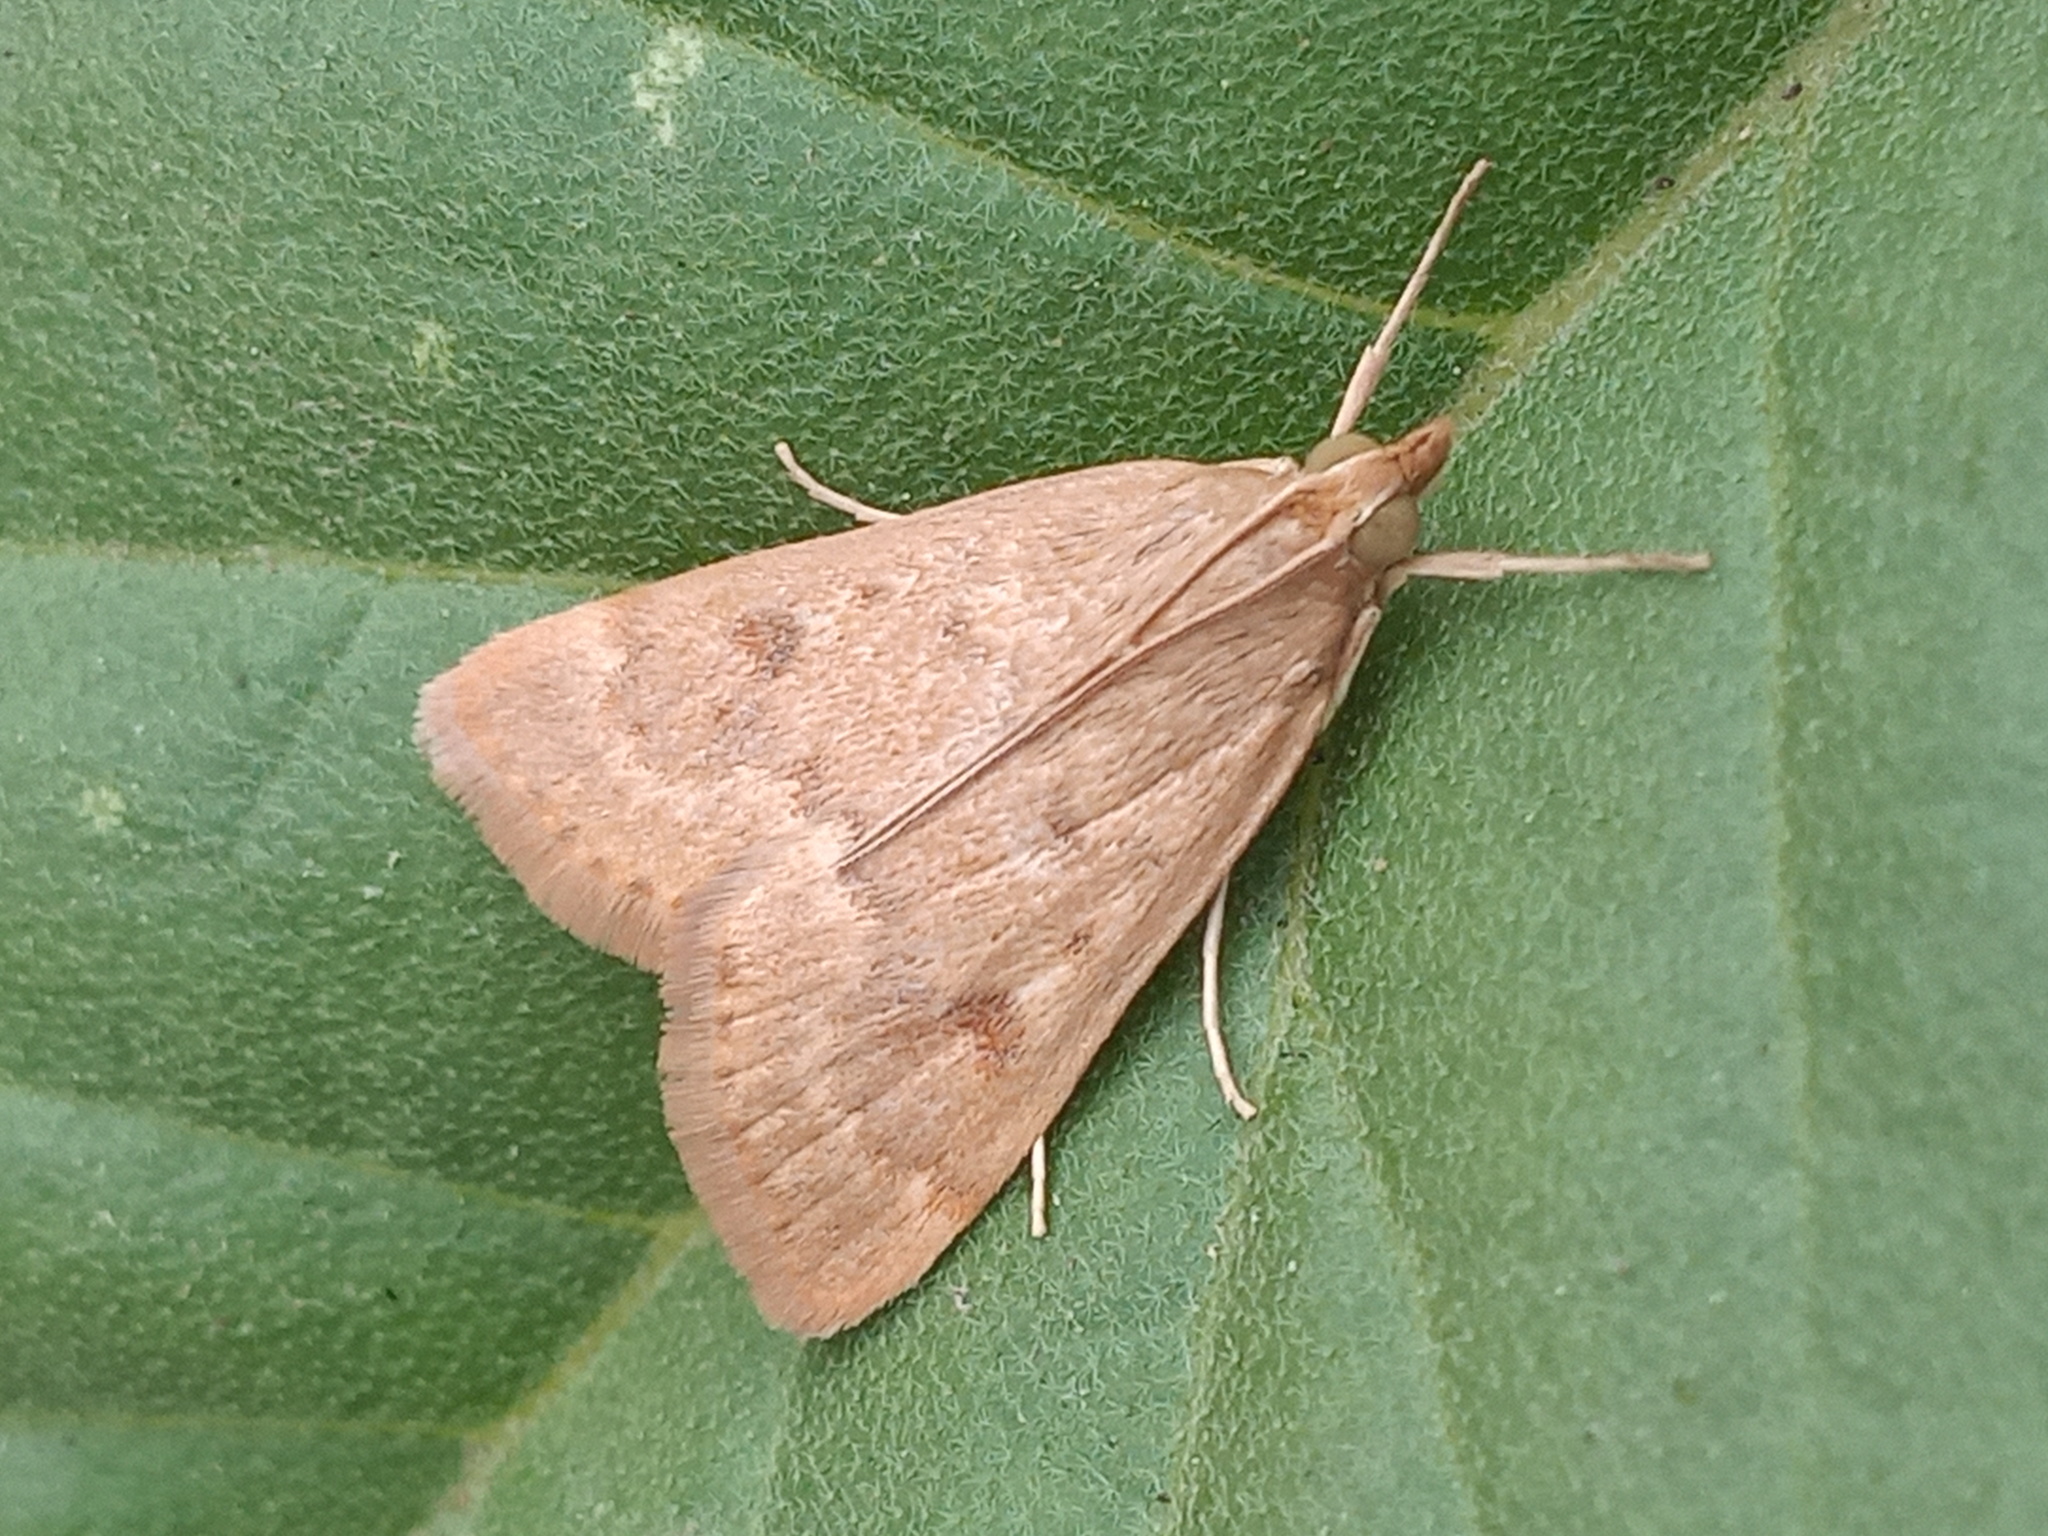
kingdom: Animalia
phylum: Arthropoda
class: Insecta
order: Lepidoptera
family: Crambidae
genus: Achyra
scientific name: Achyra rantalis
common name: Garden webworm
